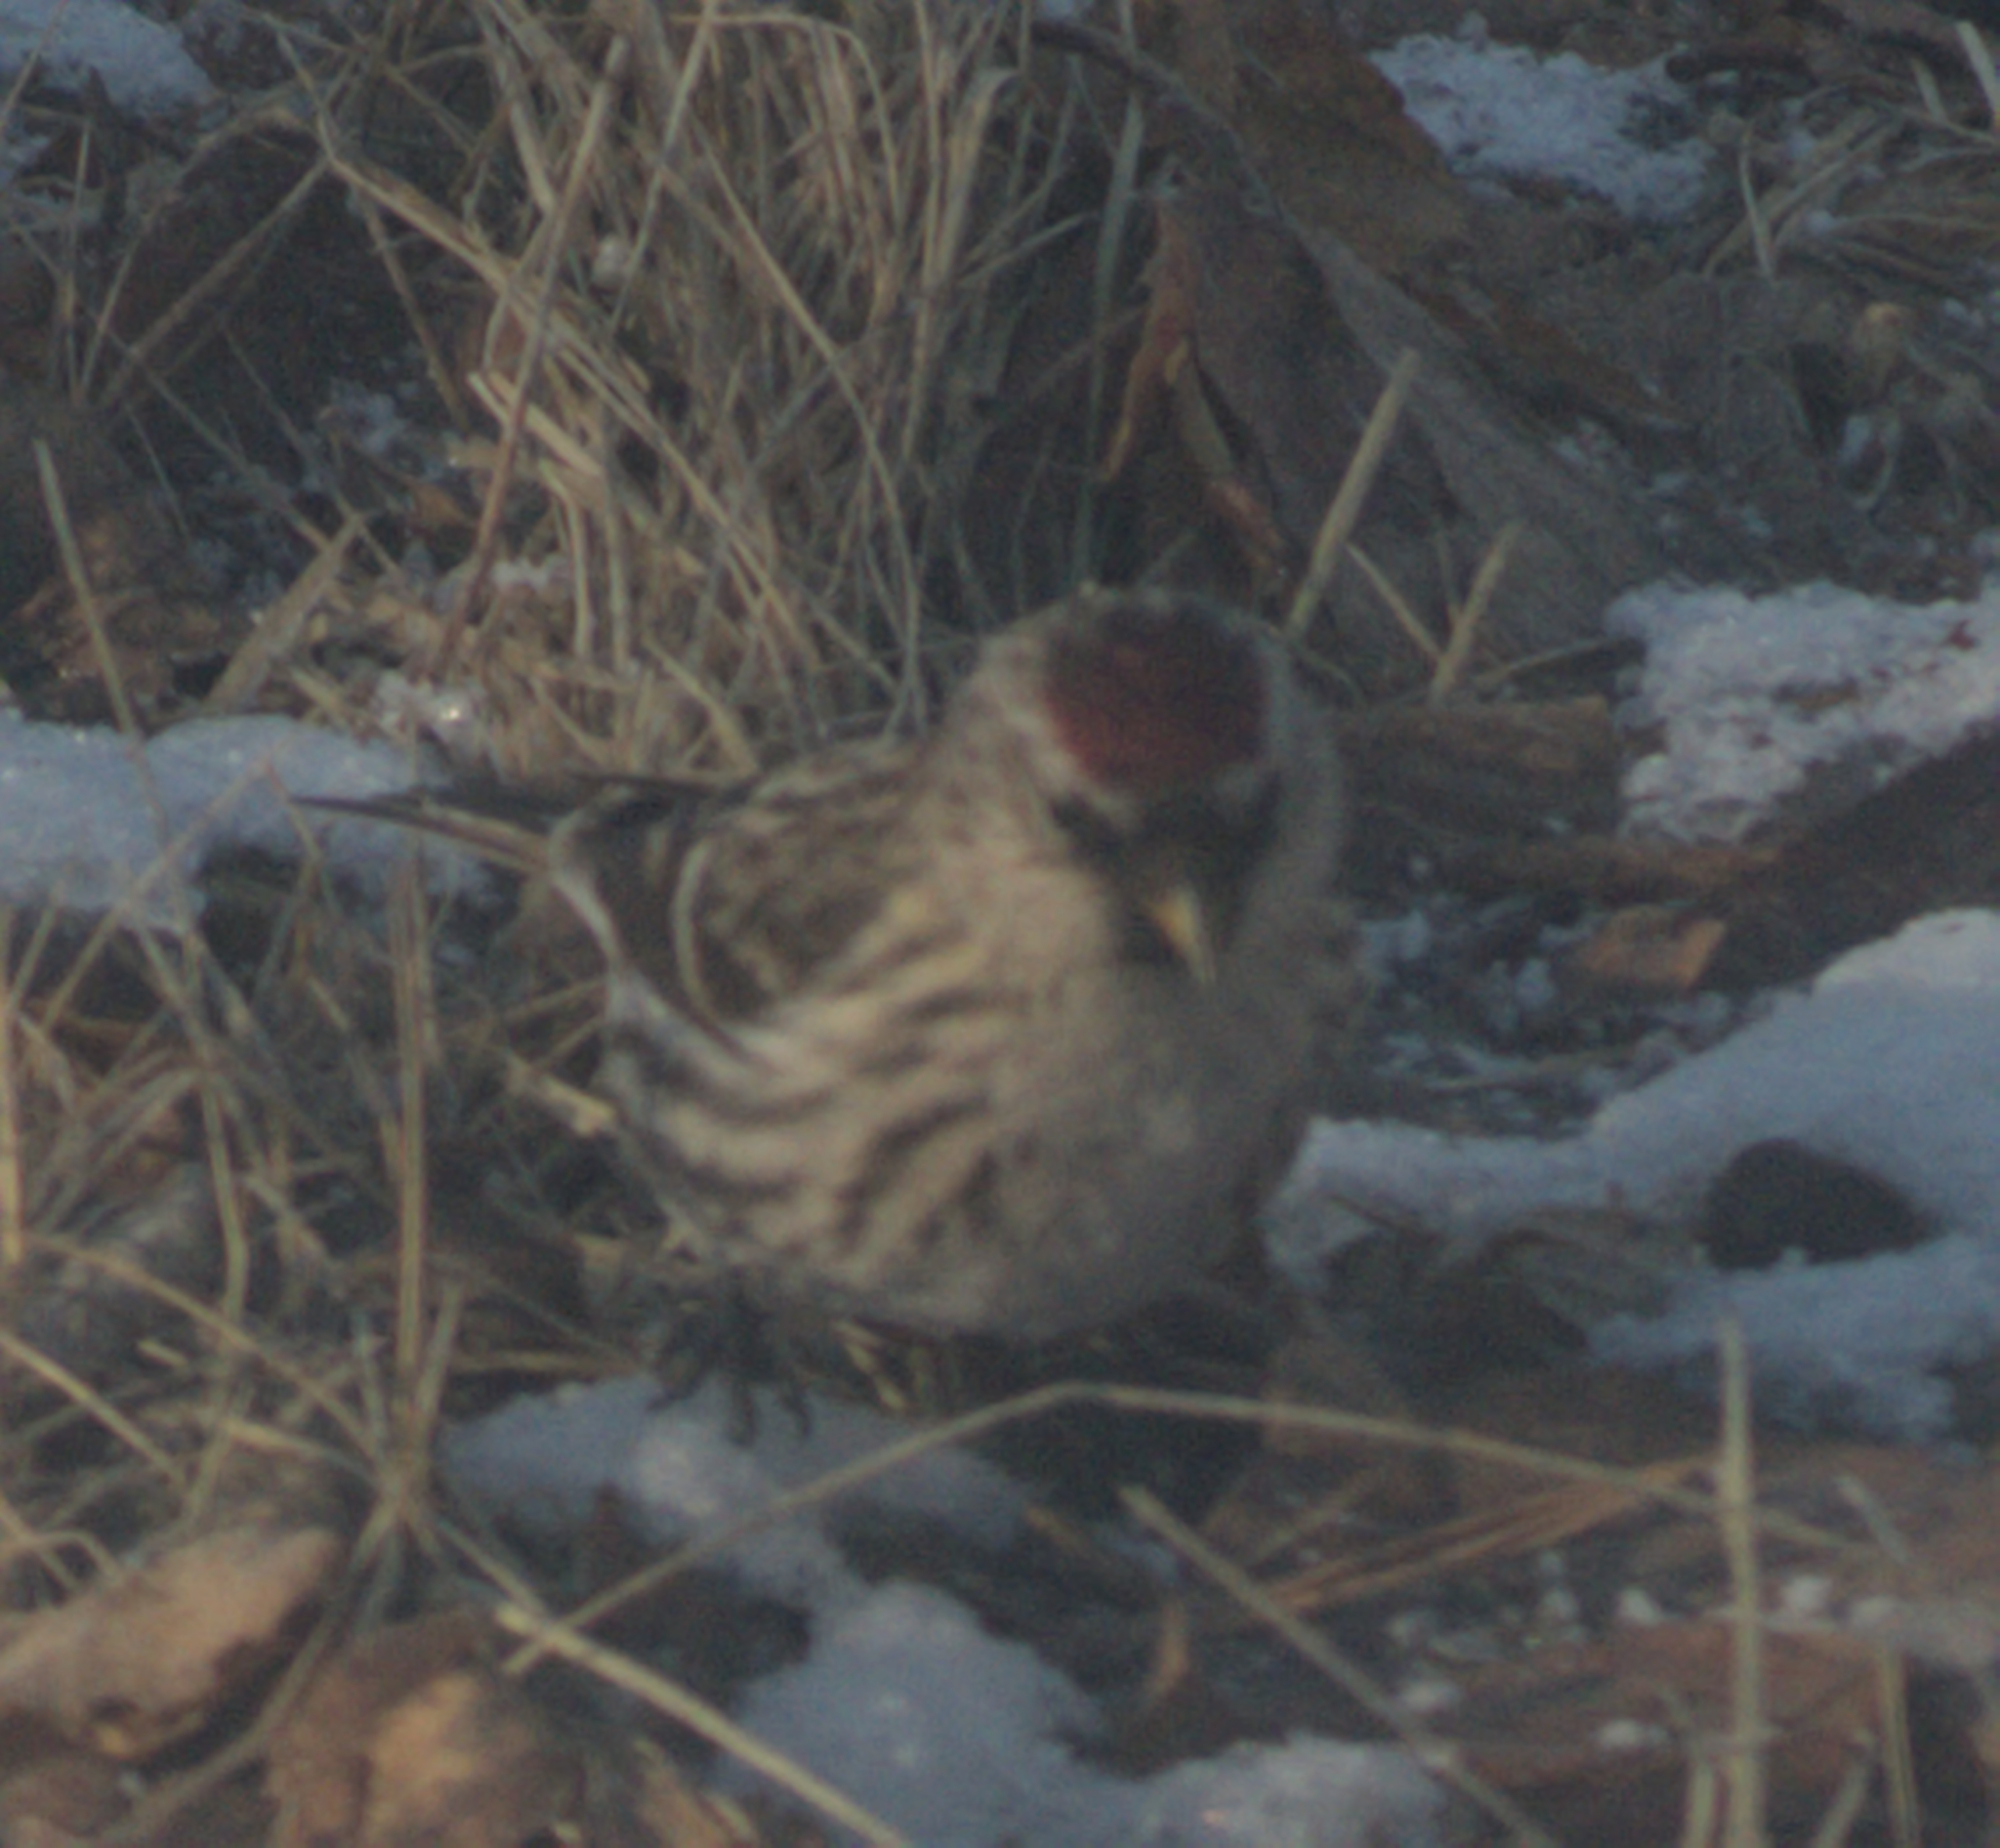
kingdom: Animalia
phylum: Chordata
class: Aves
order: Passeriformes
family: Fringillidae
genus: Acanthis
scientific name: Acanthis flammea
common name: Common redpoll
